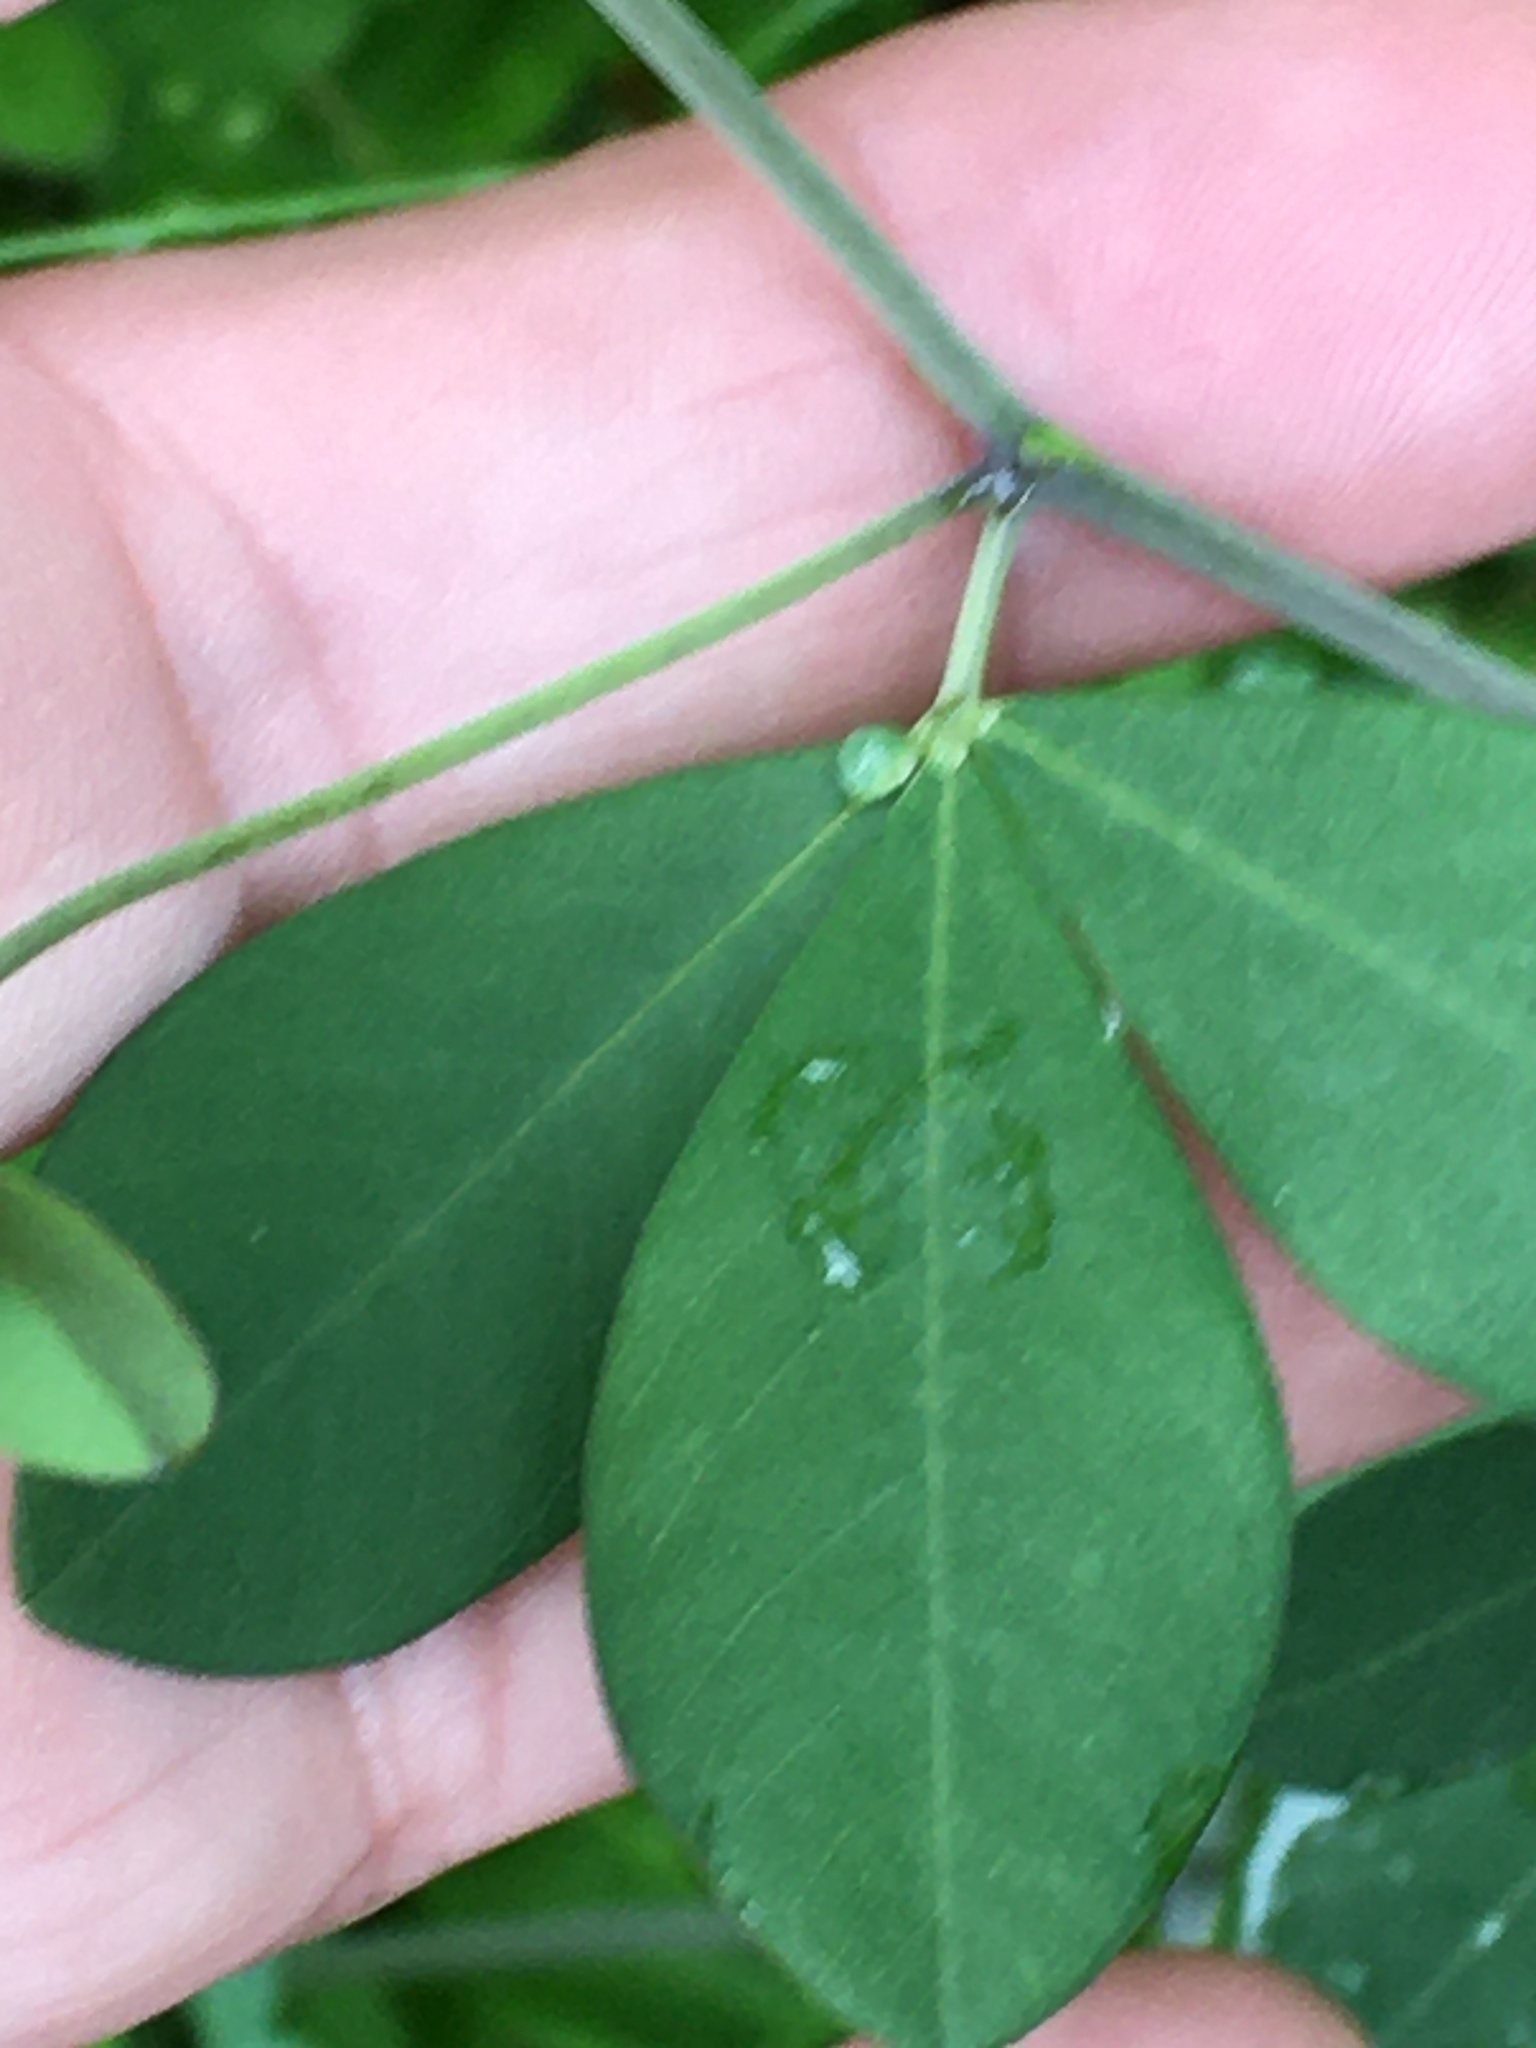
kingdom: Plantae
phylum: Tracheophyta
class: Magnoliopsida
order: Fabales
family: Fabaceae
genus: Baptisia
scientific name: Baptisia alba
